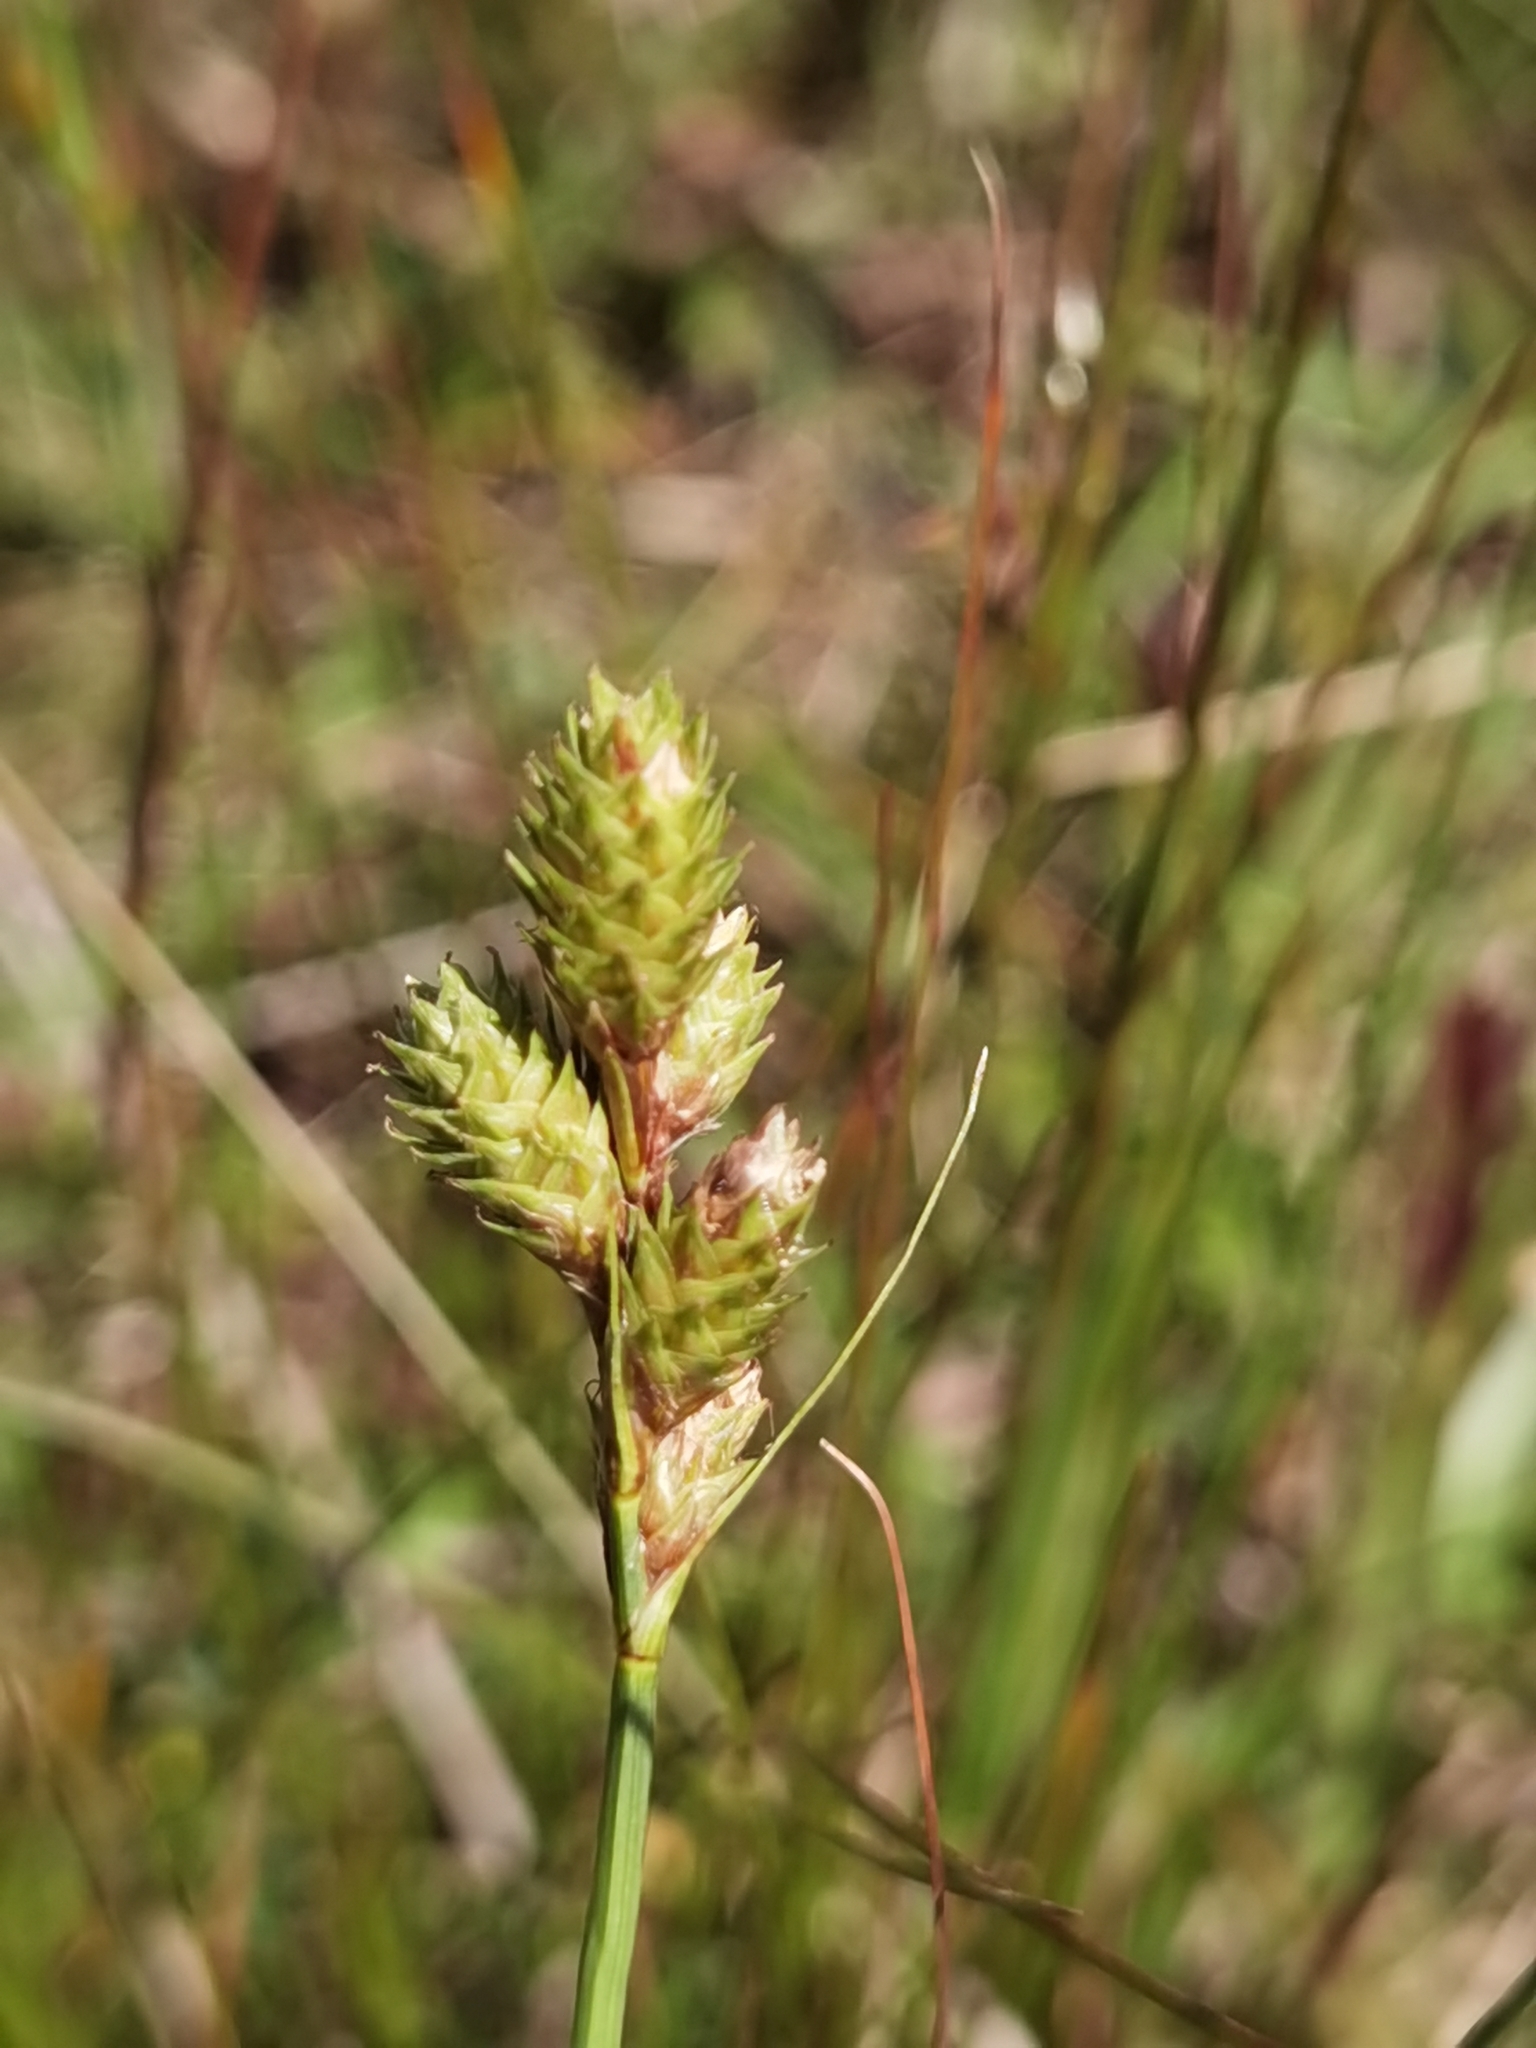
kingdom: Plantae
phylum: Tracheophyta
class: Liliopsida
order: Poales
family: Cyperaceae
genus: Carex
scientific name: Carex longii
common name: Long's sedge
